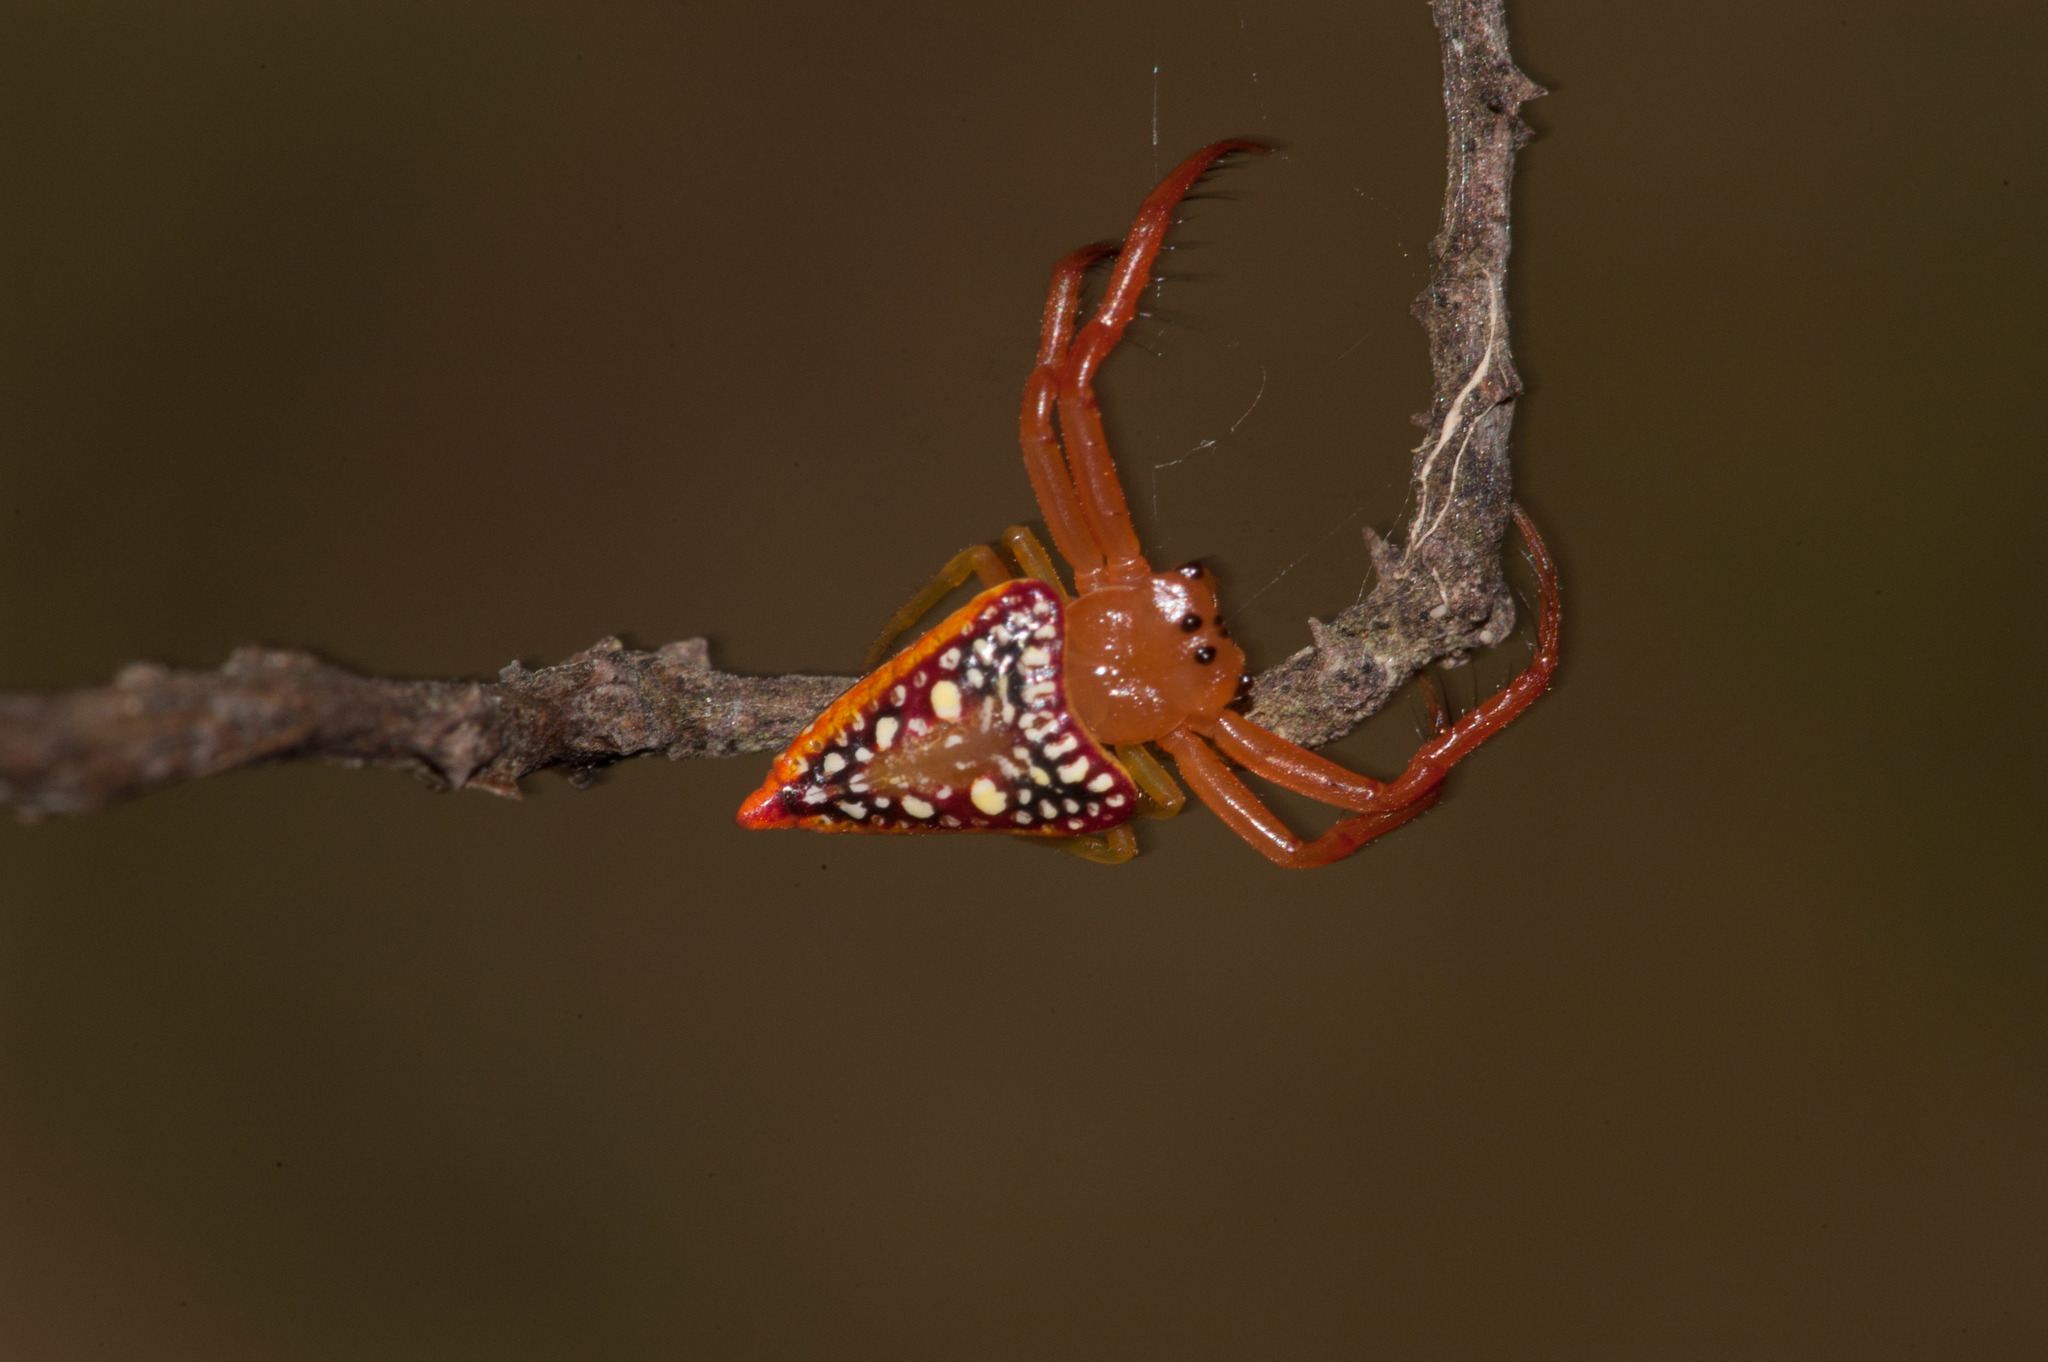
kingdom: Animalia
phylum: Arthropoda
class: Arachnida
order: Araneae
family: Arkyidae
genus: Arkys
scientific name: Arkys walckenaeri
